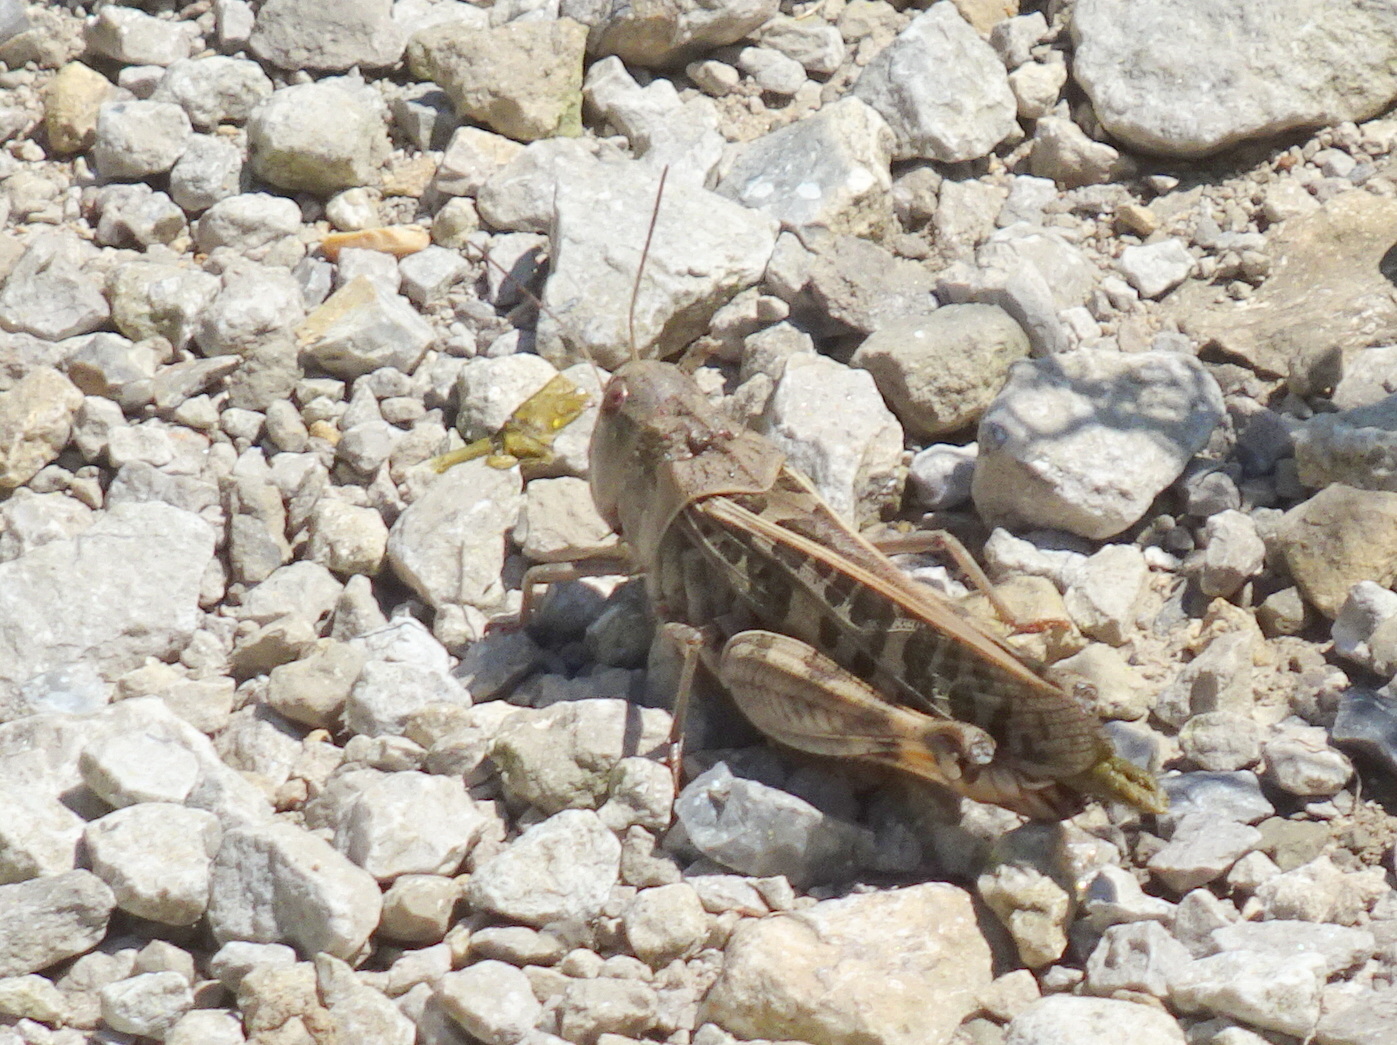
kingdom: Animalia
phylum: Arthropoda
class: Insecta
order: Orthoptera
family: Acrididae
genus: Hippiscus
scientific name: Hippiscus ocelote
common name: Wrinkled grasshopper
